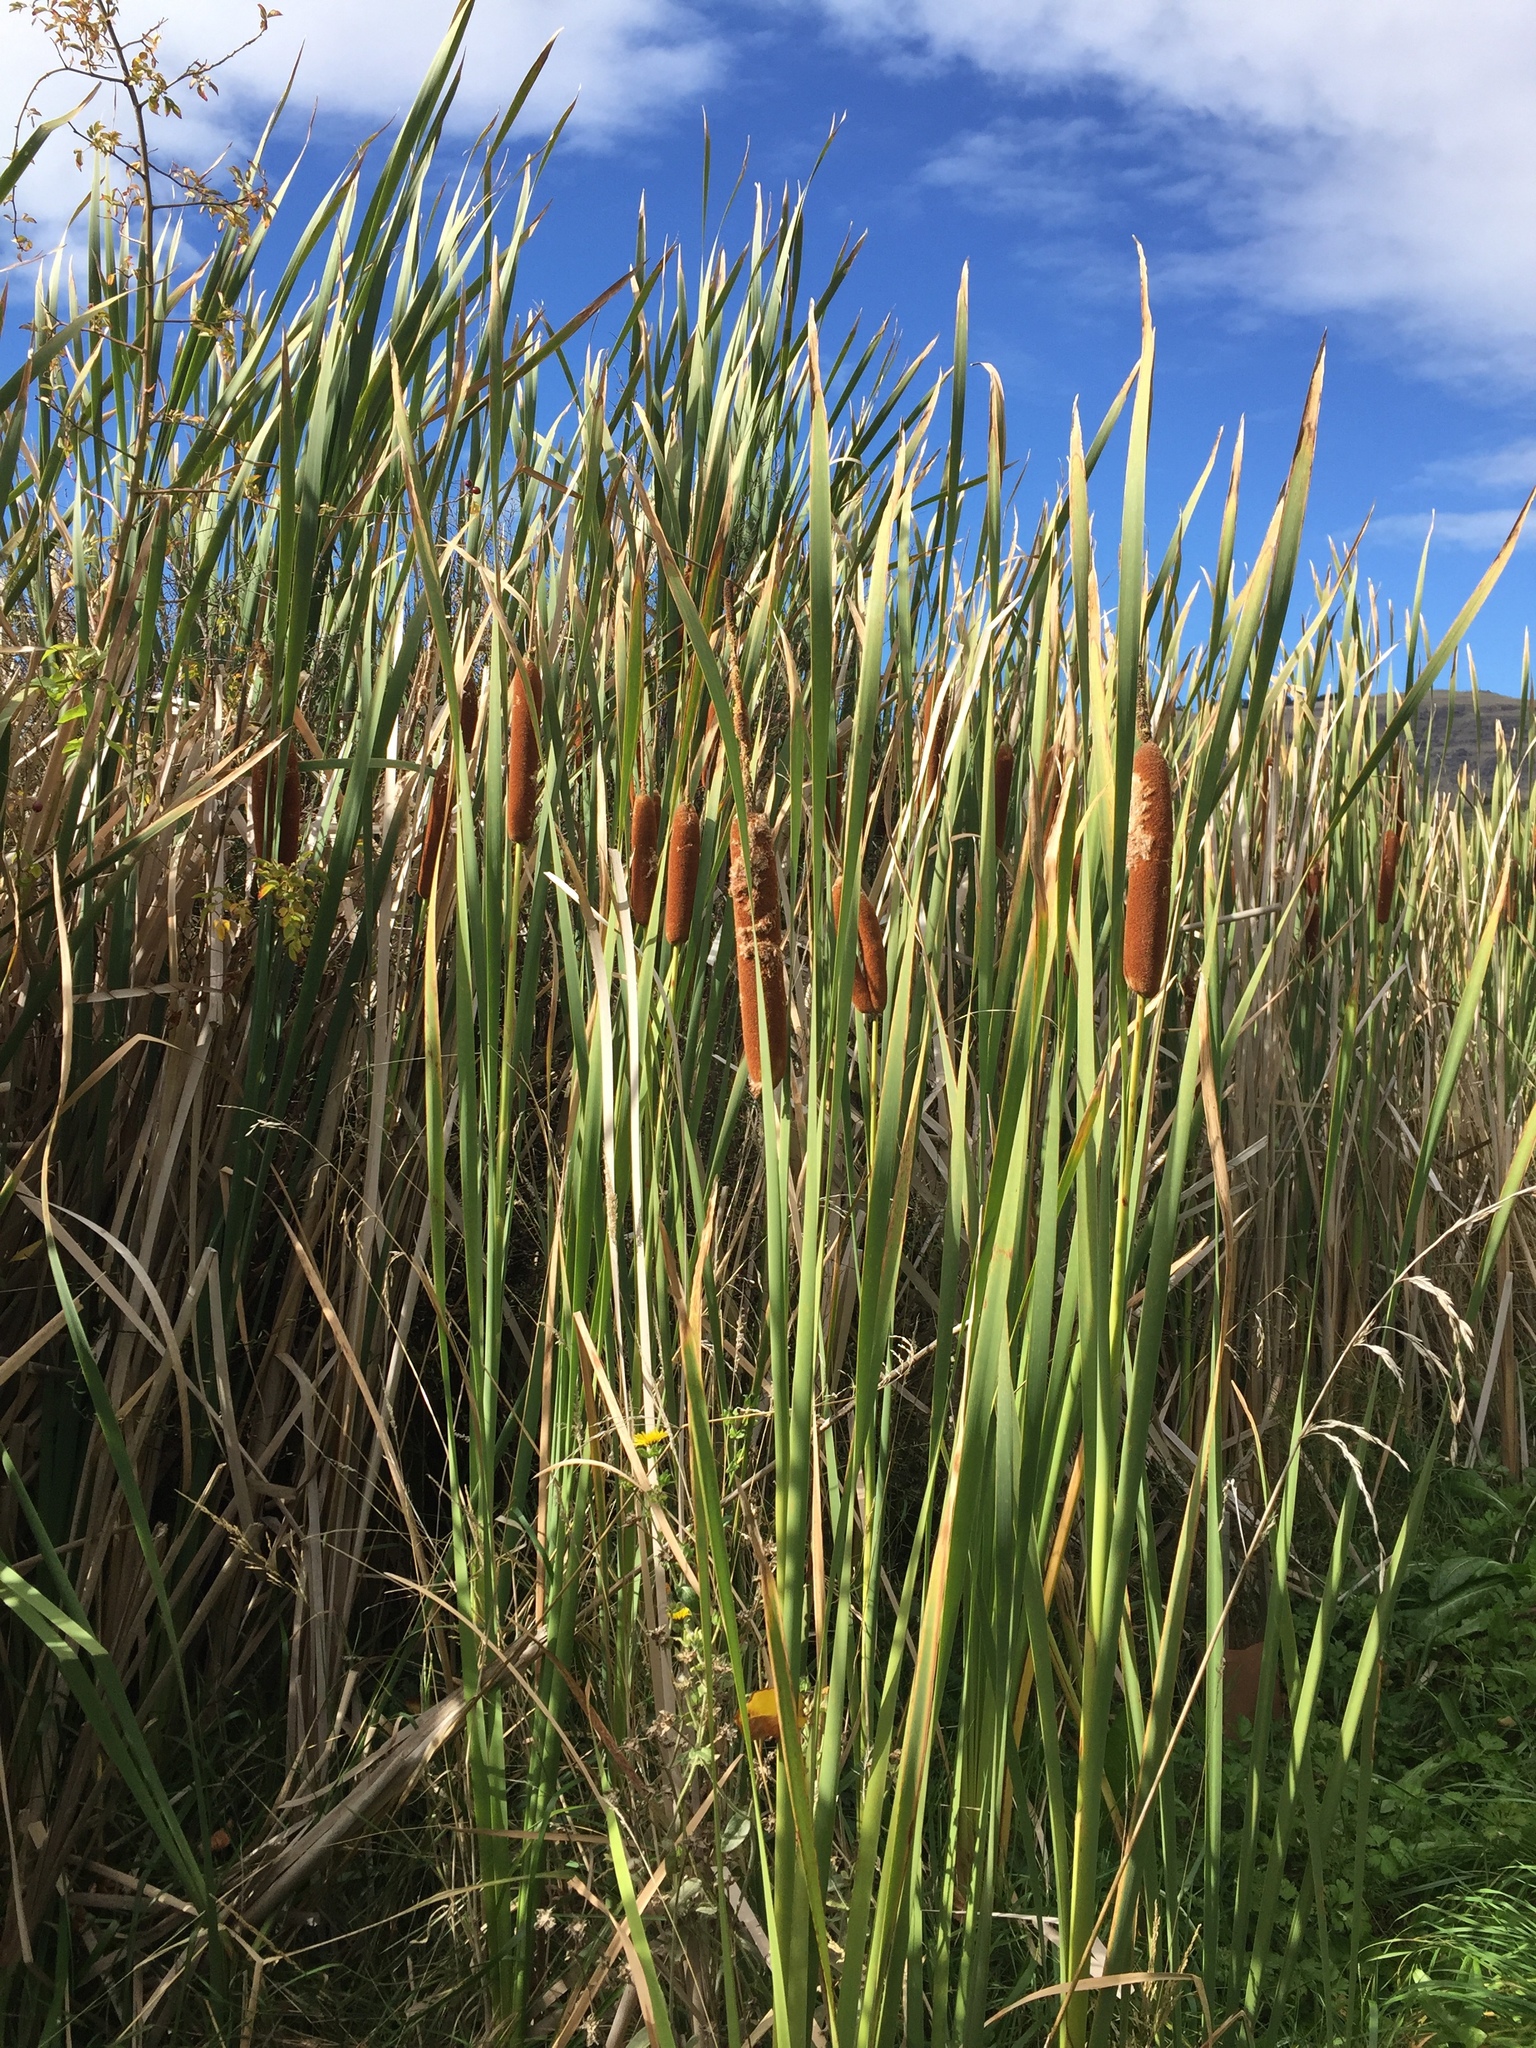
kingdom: Plantae
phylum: Tracheophyta
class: Liliopsida
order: Poales
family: Typhaceae
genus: Typha
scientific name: Typha orientalis
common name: Bullrush
